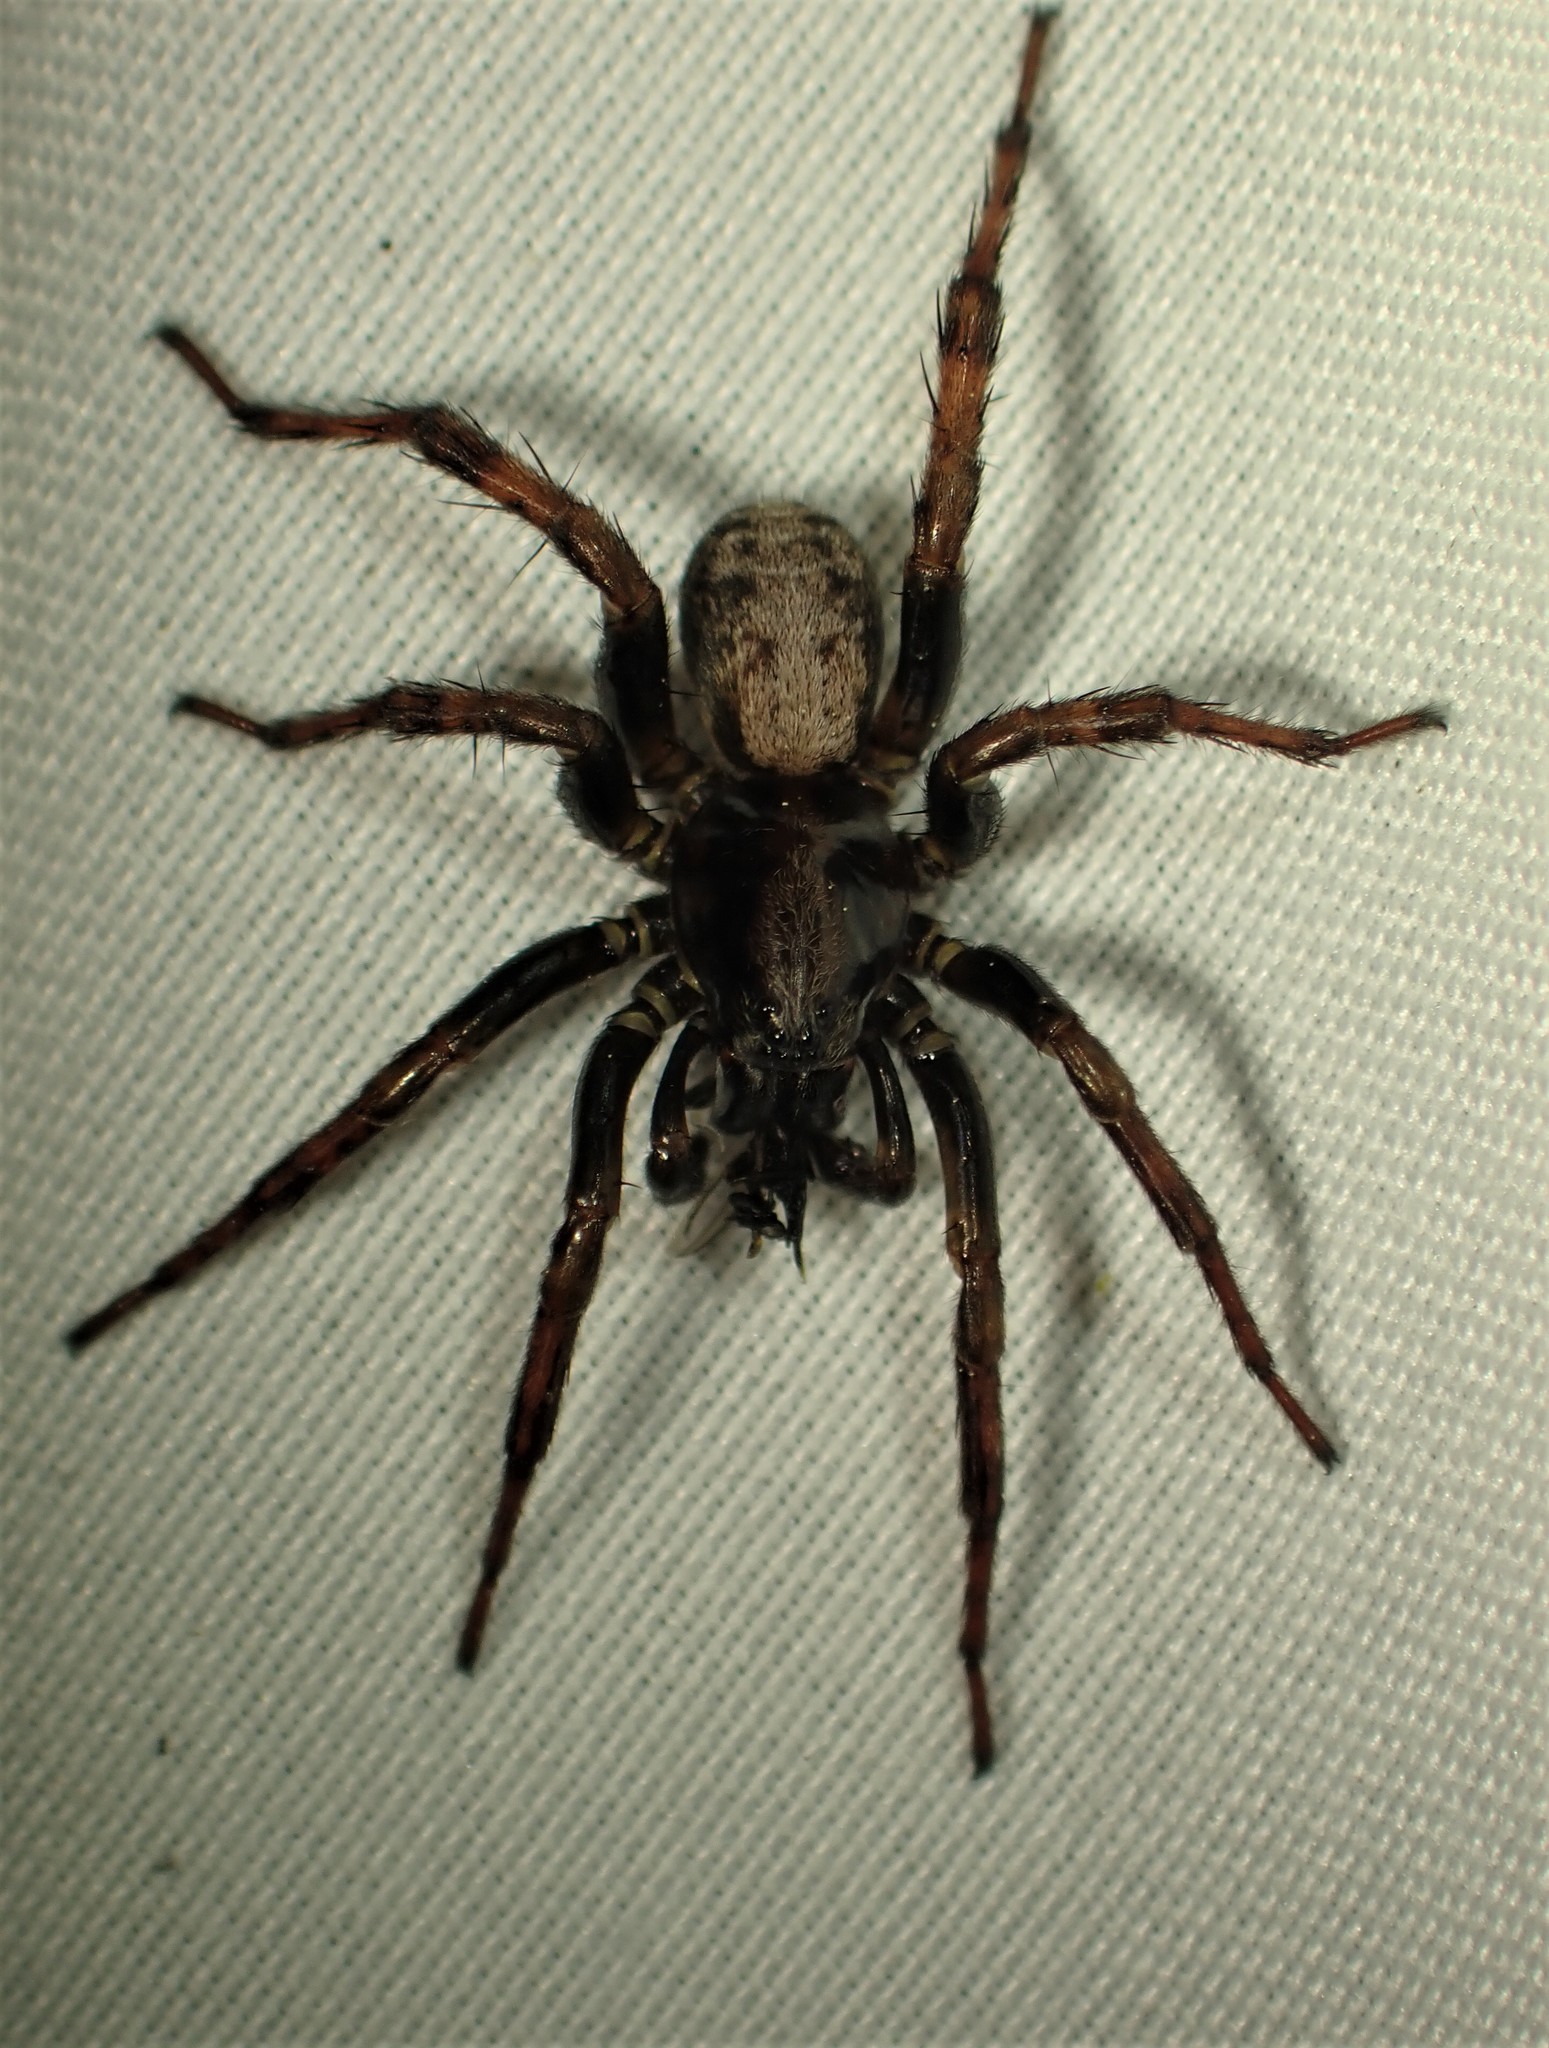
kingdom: Animalia
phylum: Arthropoda
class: Arachnida
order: Araneae
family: Lycosidae
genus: Arctosa
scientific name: Arctosa rubicunda
